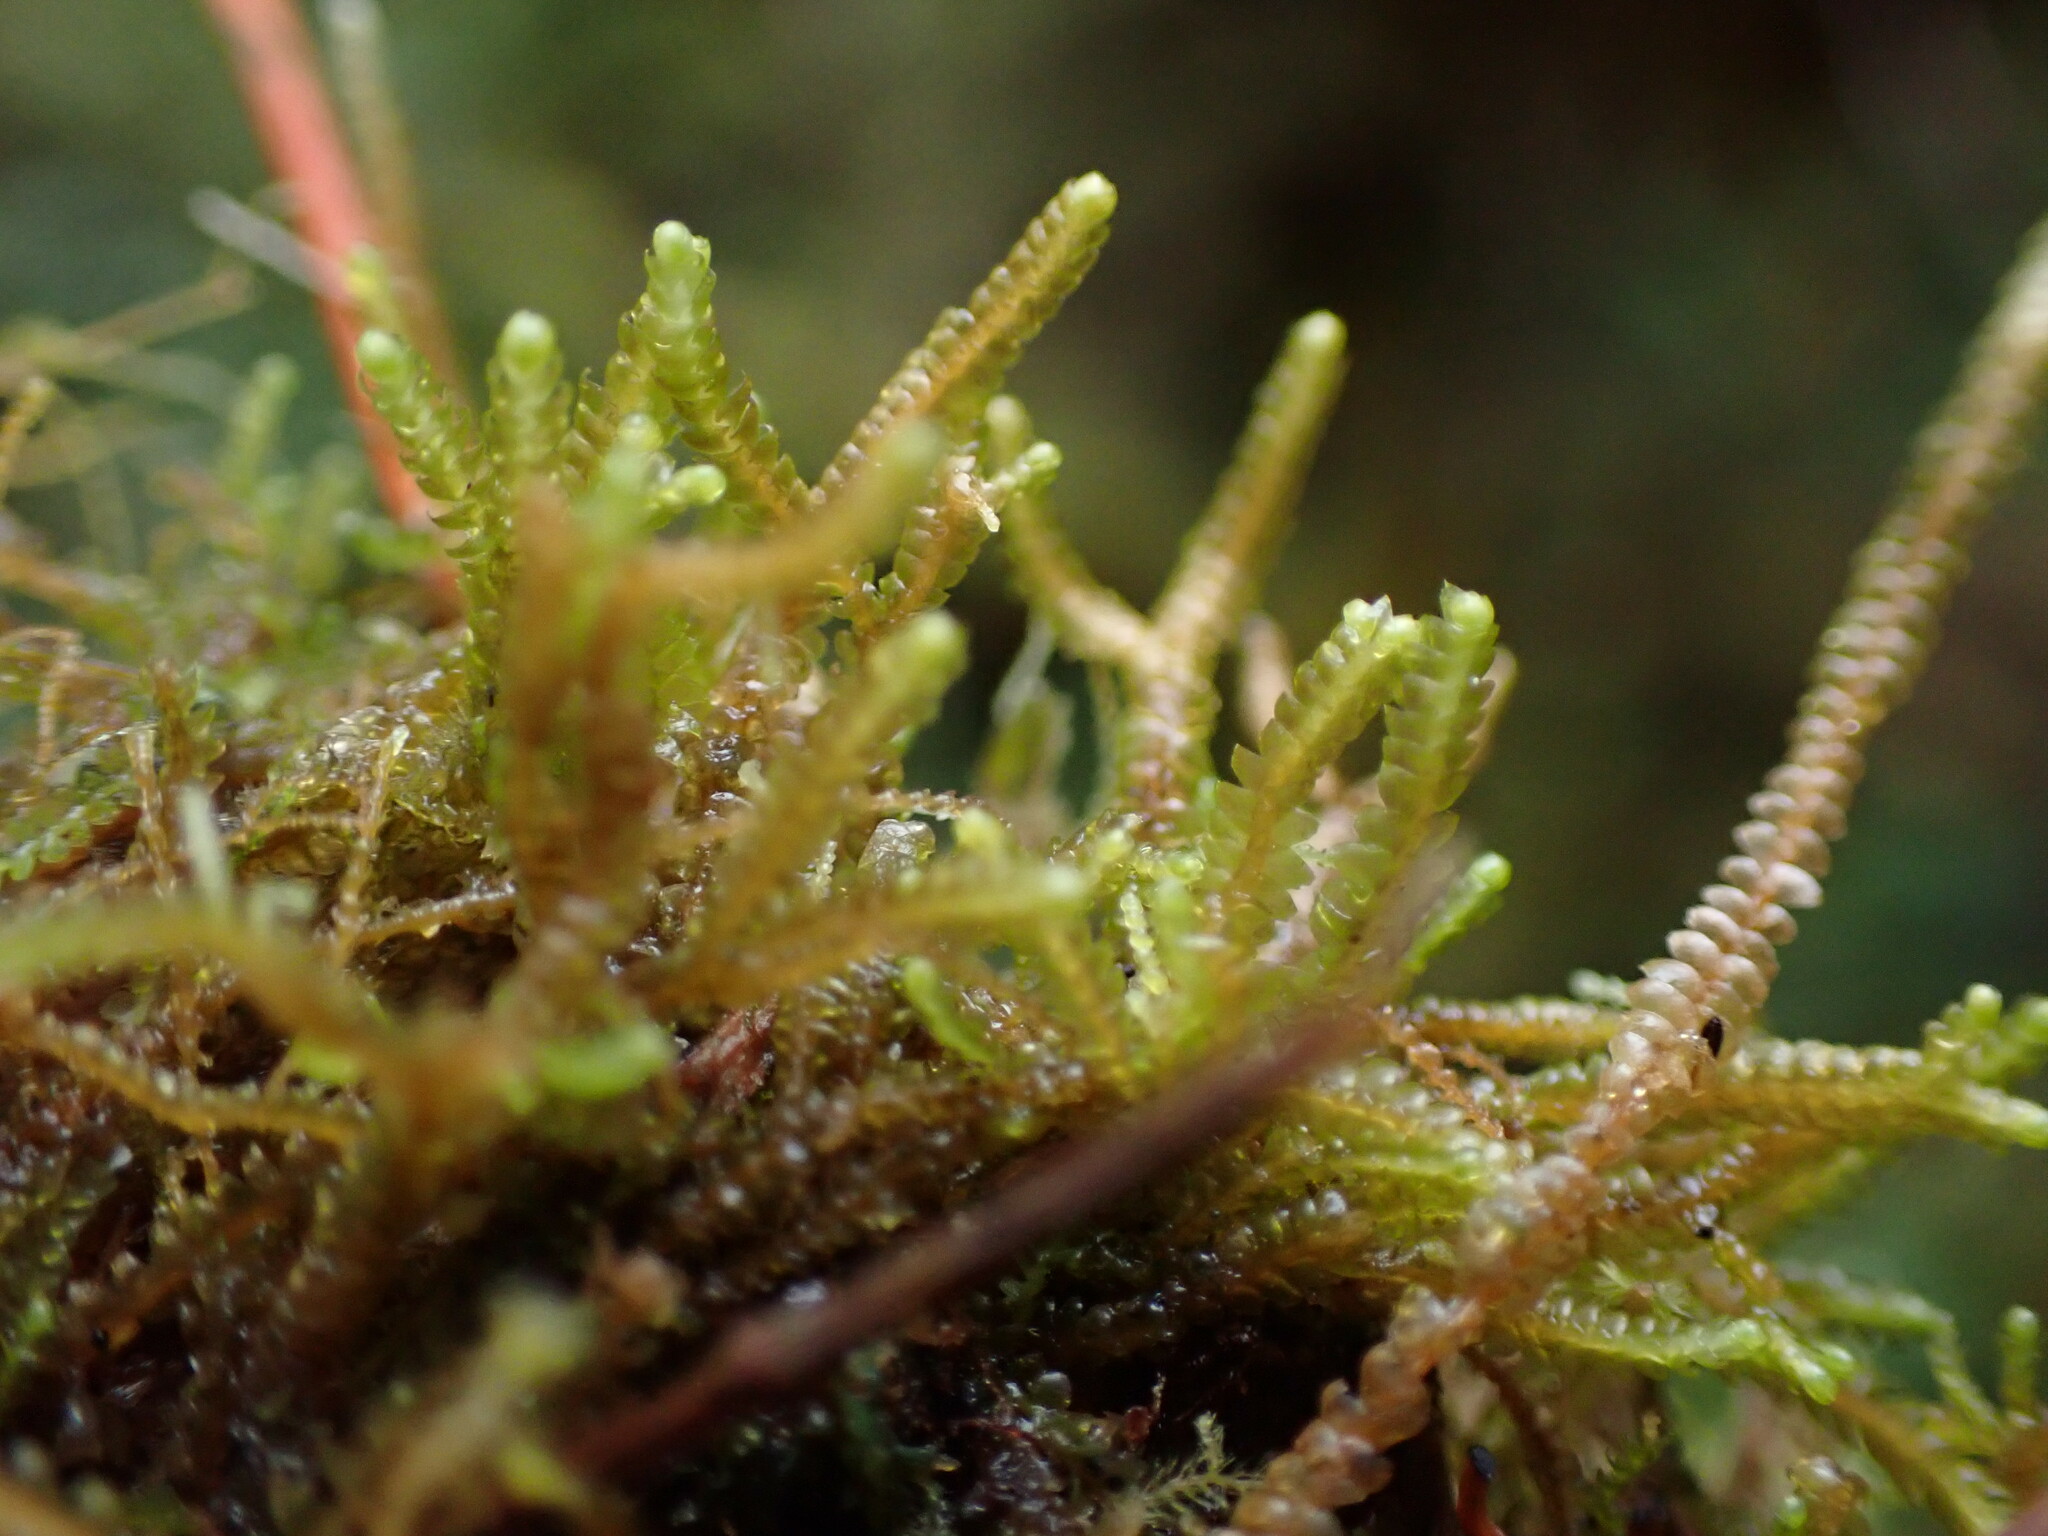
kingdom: Plantae
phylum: Marchantiophyta
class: Jungermanniopsida
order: Jungermanniales
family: Lepidoziaceae
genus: Bazzania
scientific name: Bazzania tricrenata
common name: Lesser whipwort
